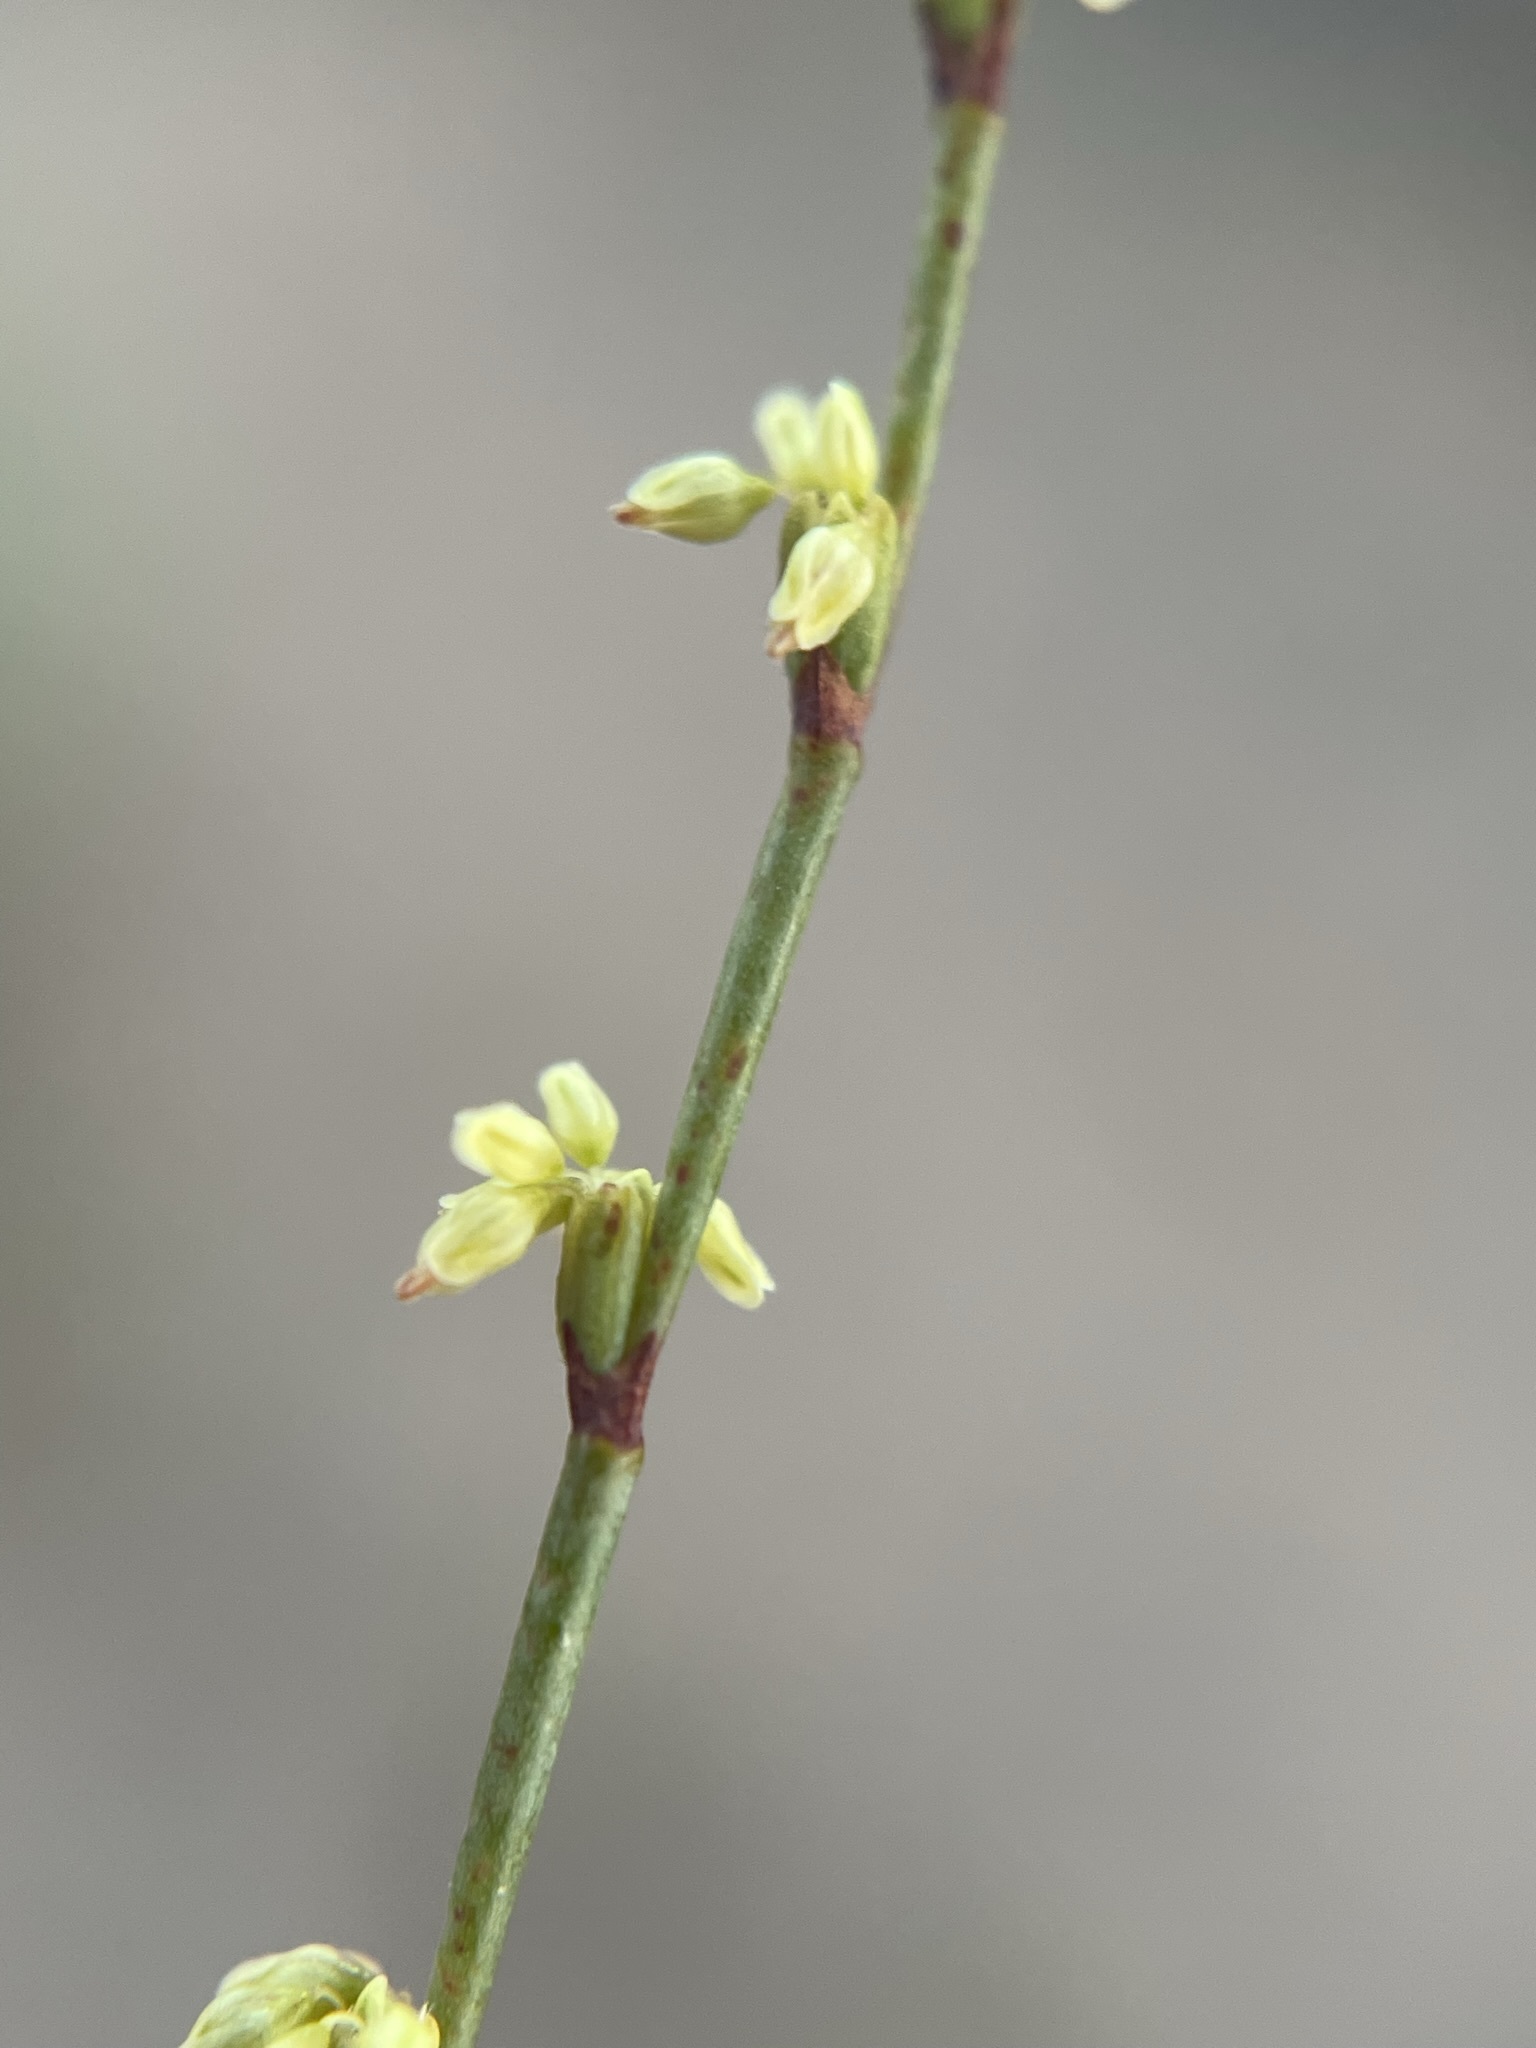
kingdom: Plantae
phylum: Tracheophyta
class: Magnoliopsida
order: Caryophyllales
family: Polygonaceae
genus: Eriogonum
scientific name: Eriogonum brachyanthum
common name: Short-flower wild buckwheat
